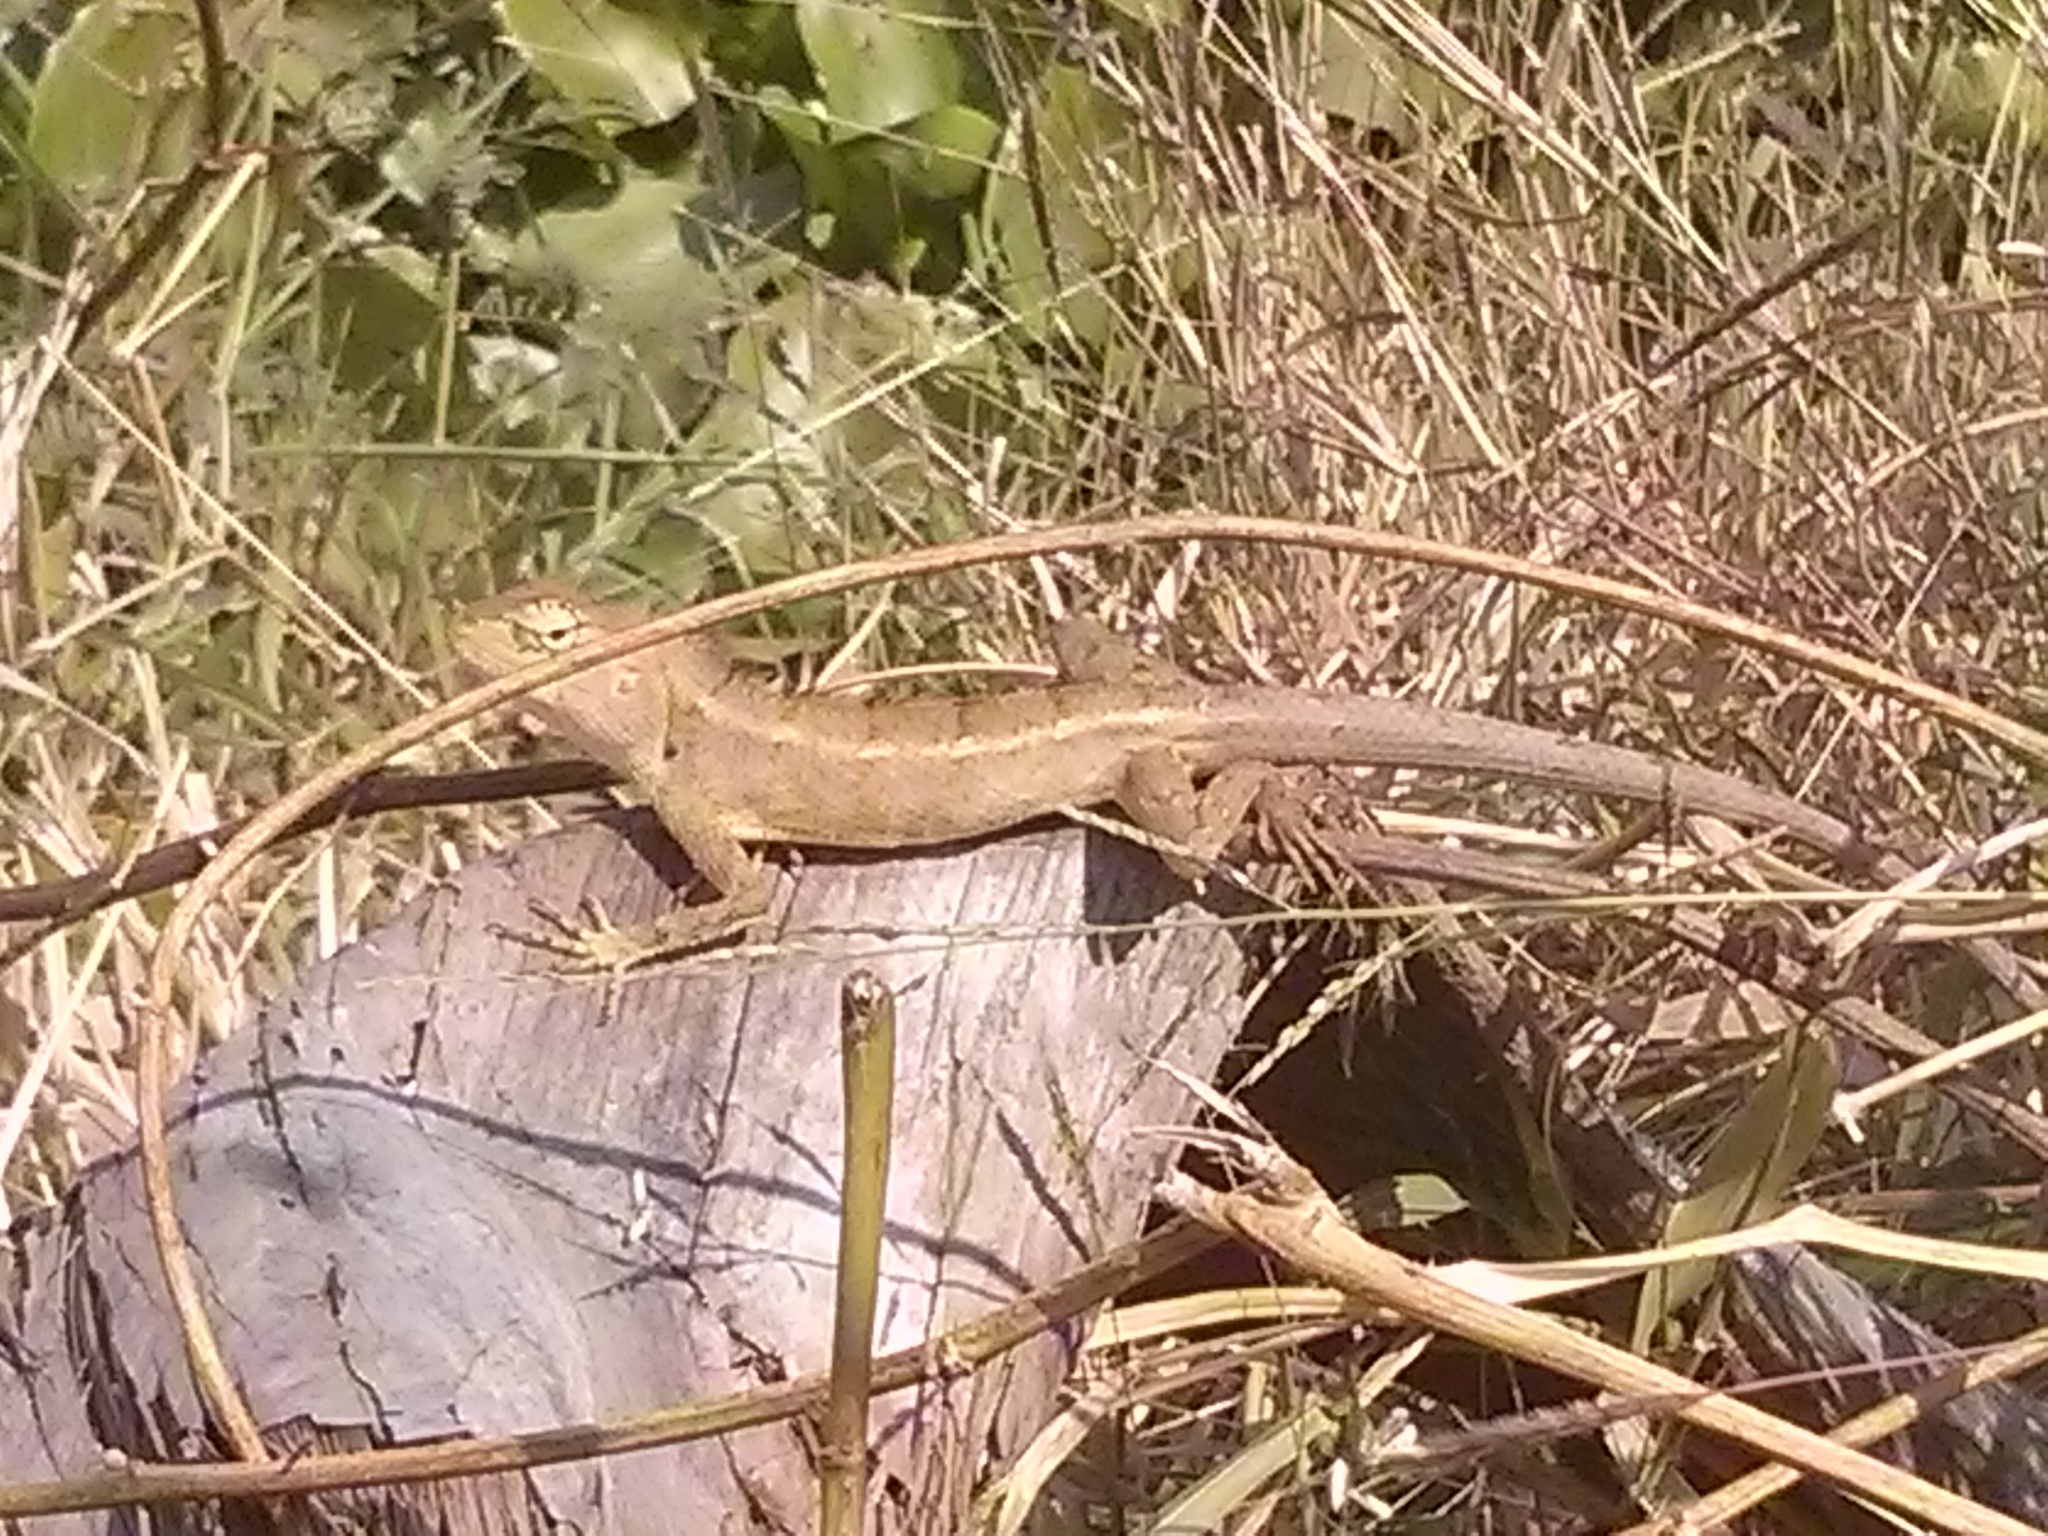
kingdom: Animalia
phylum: Chordata
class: Squamata
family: Agamidae
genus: Calotes
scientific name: Calotes versicolor
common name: Oriental garden lizard
